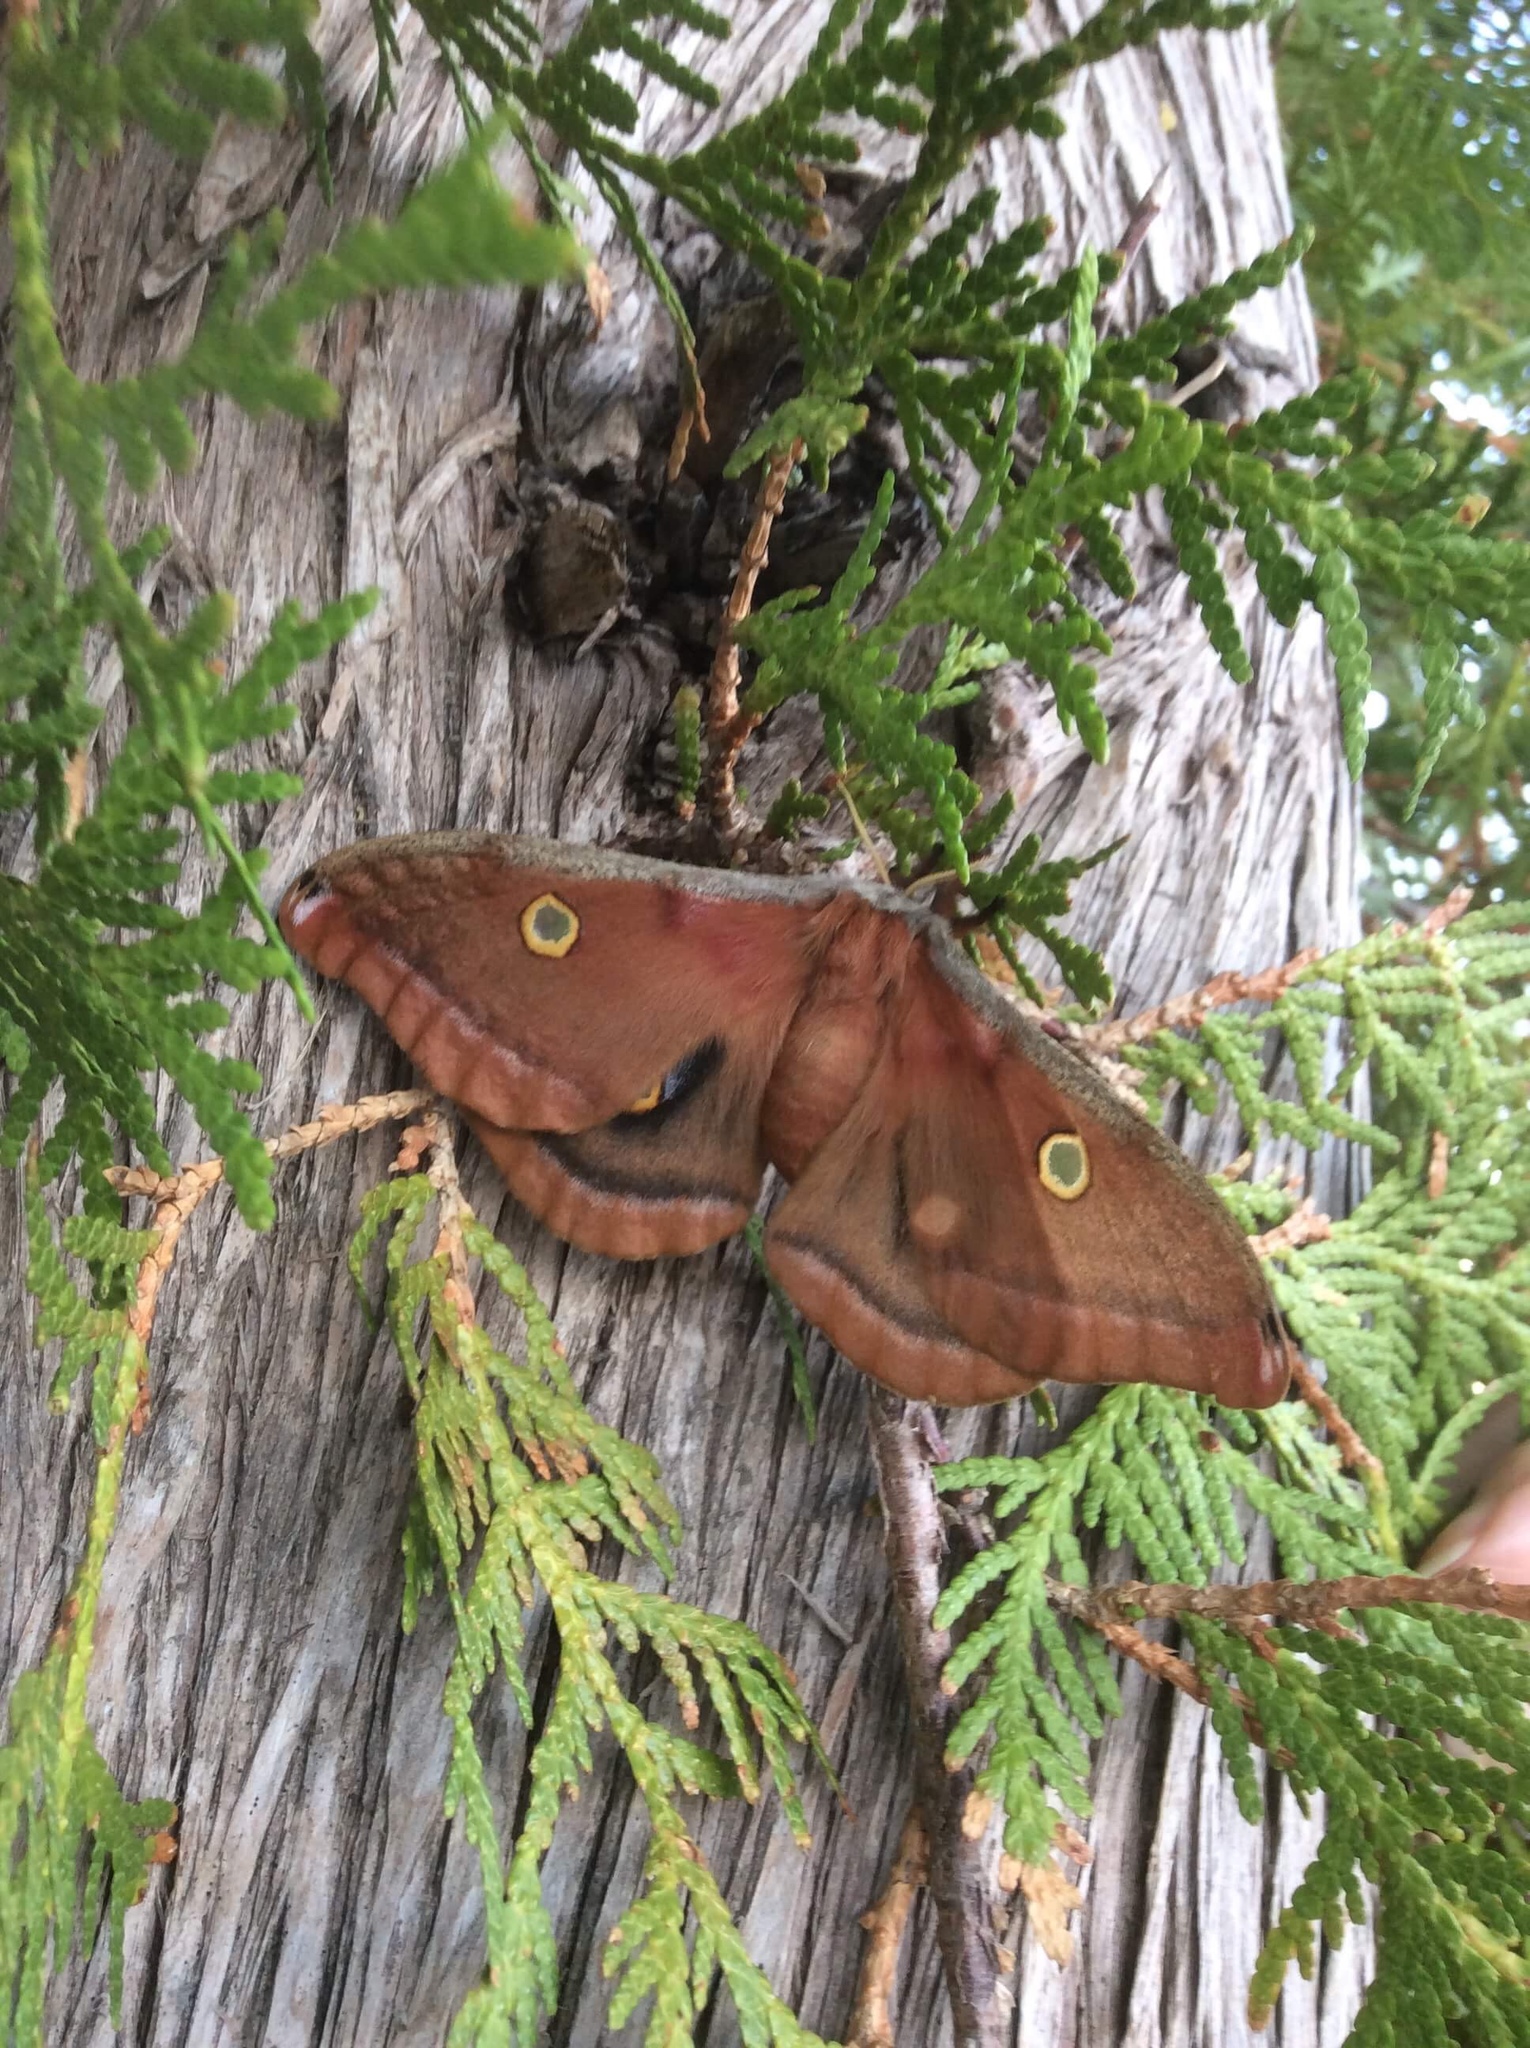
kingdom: Animalia
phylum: Arthropoda
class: Insecta
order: Lepidoptera
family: Saturniidae
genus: Antheraea
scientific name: Antheraea polyphemus
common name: Polyphemus moth
